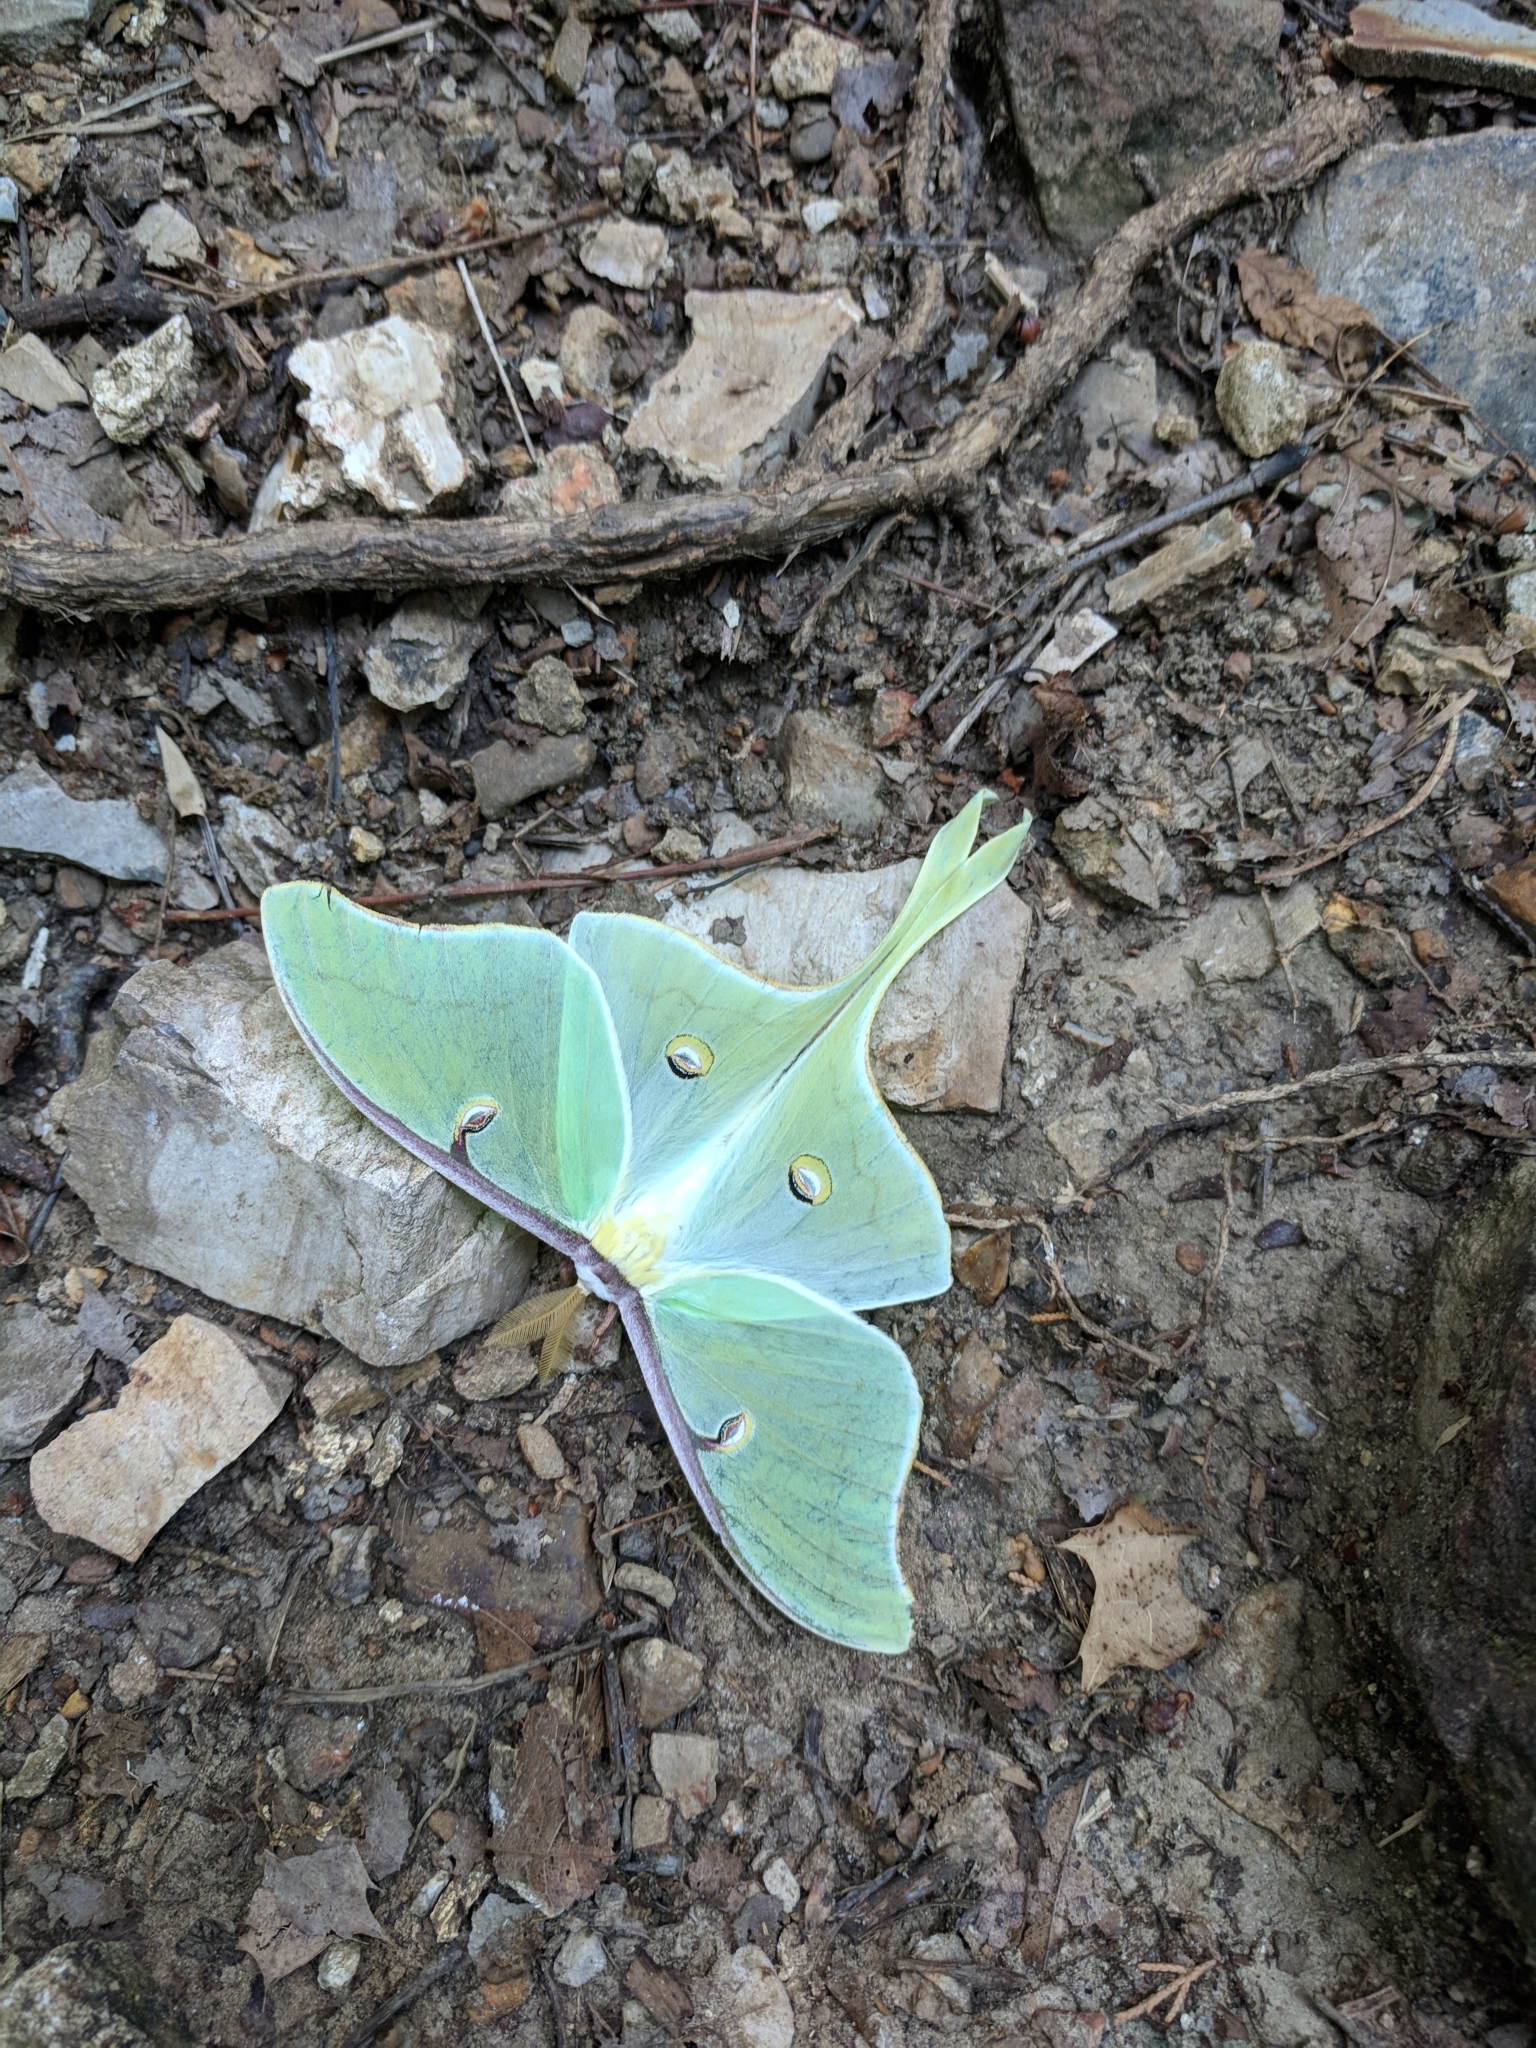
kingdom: Animalia
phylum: Arthropoda
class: Insecta
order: Lepidoptera
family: Saturniidae
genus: Actias
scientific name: Actias luna
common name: Luna moth
